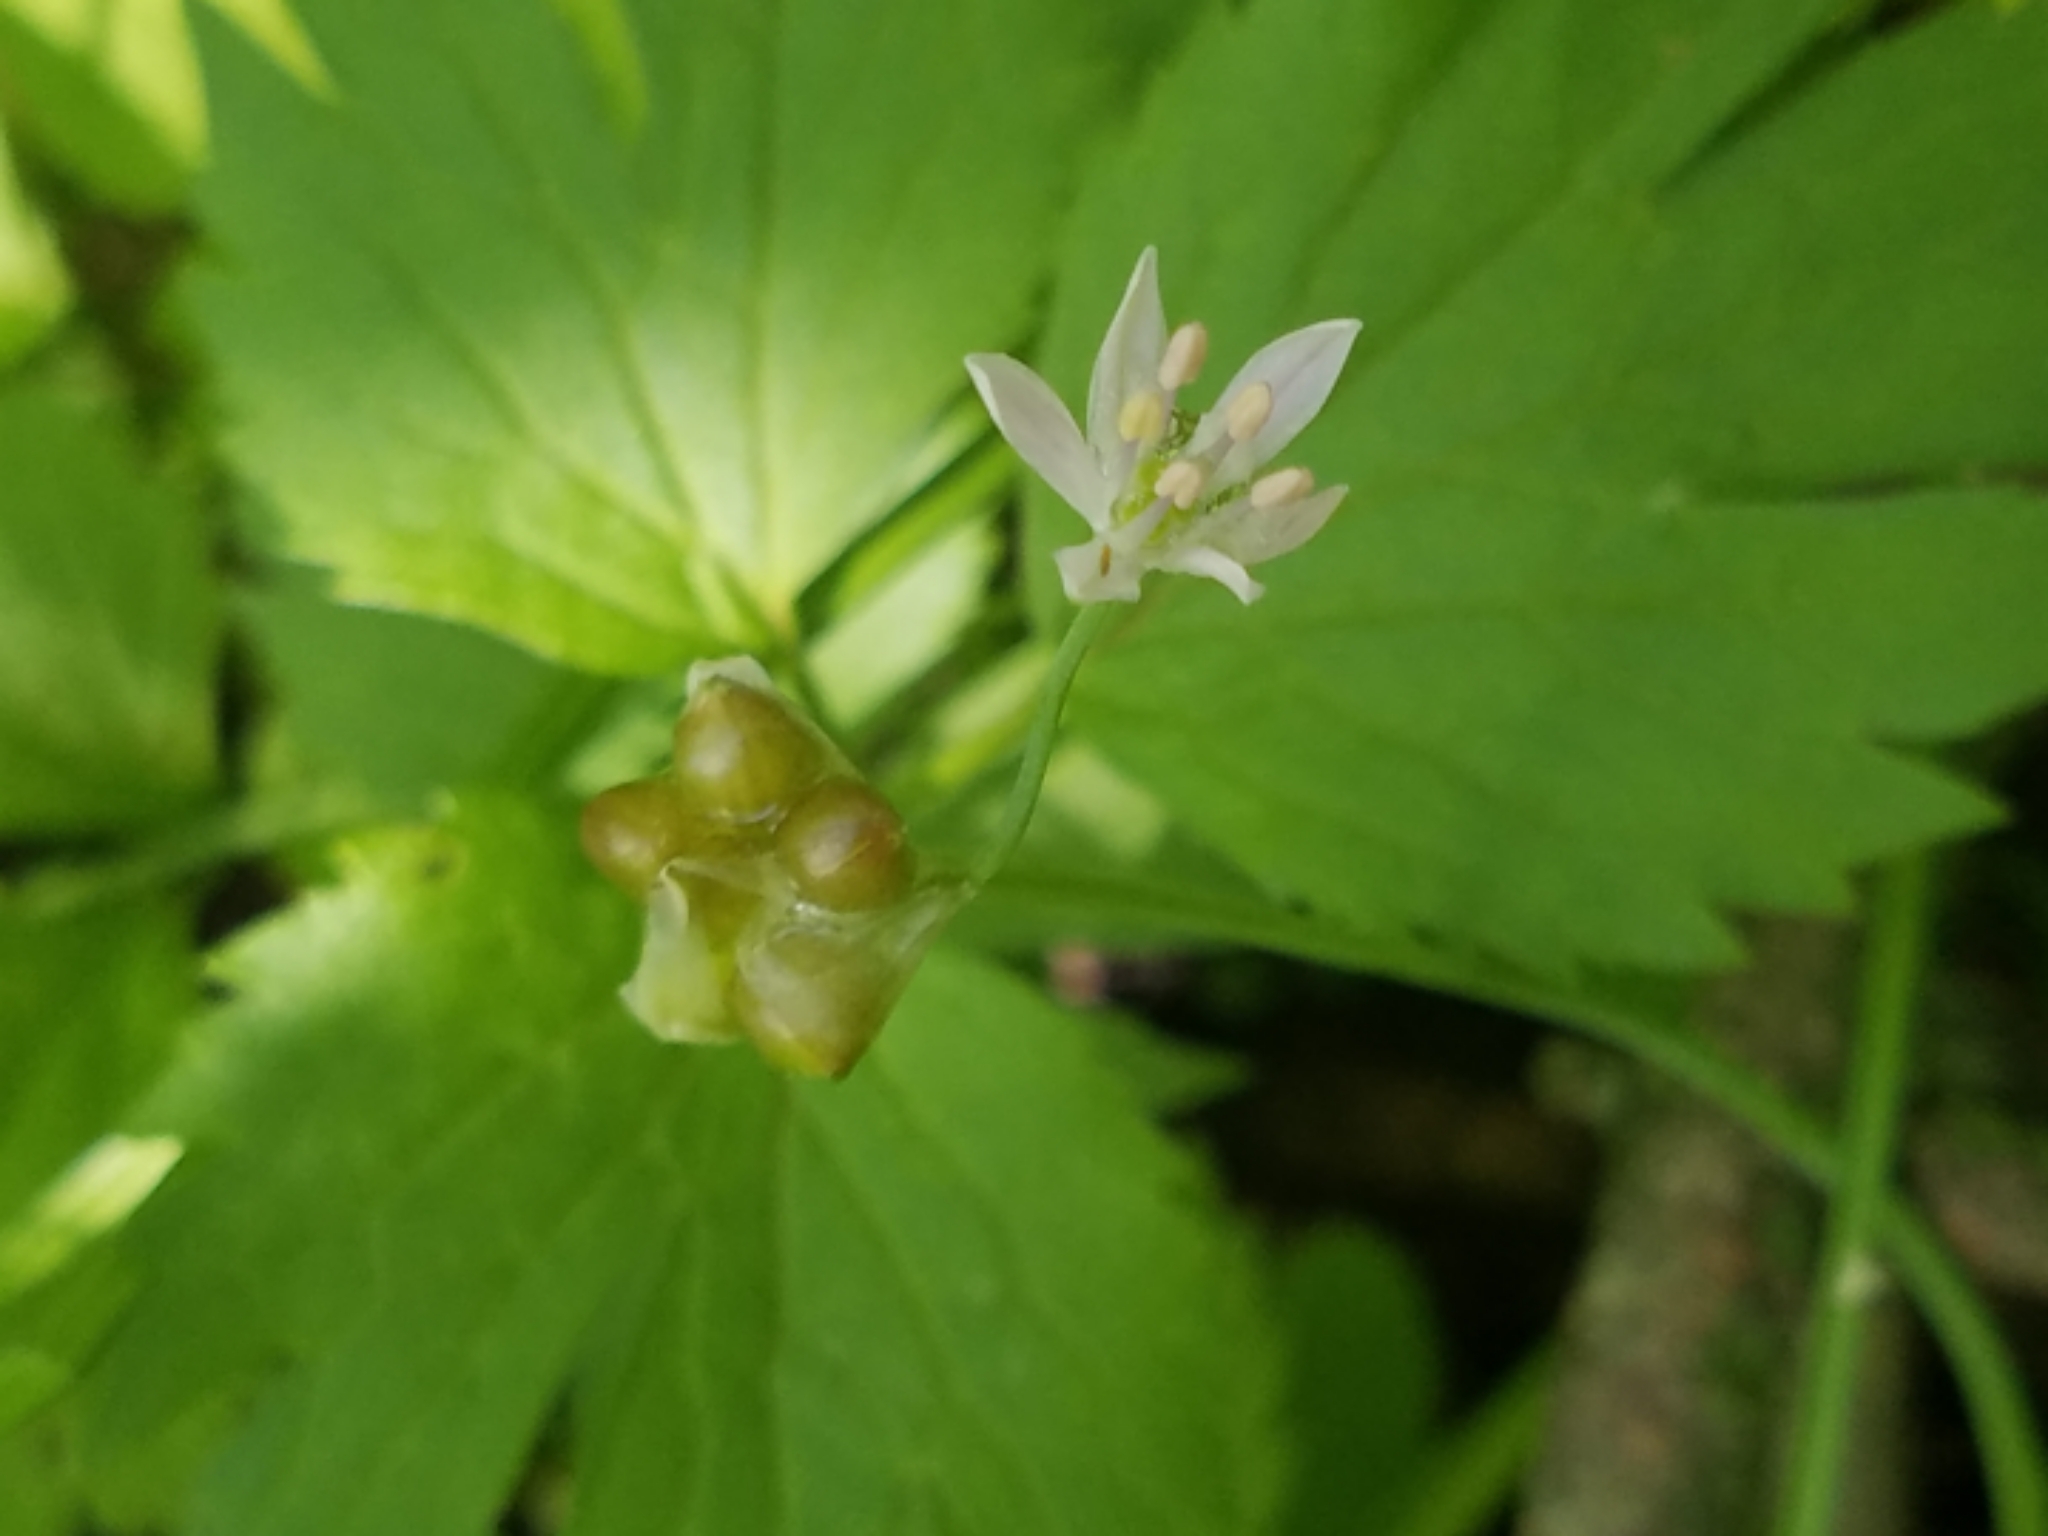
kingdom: Plantae
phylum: Tracheophyta
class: Liliopsida
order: Asparagales
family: Amaryllidaceae
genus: Allium
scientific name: Allium canadense
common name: Meadow garlic
